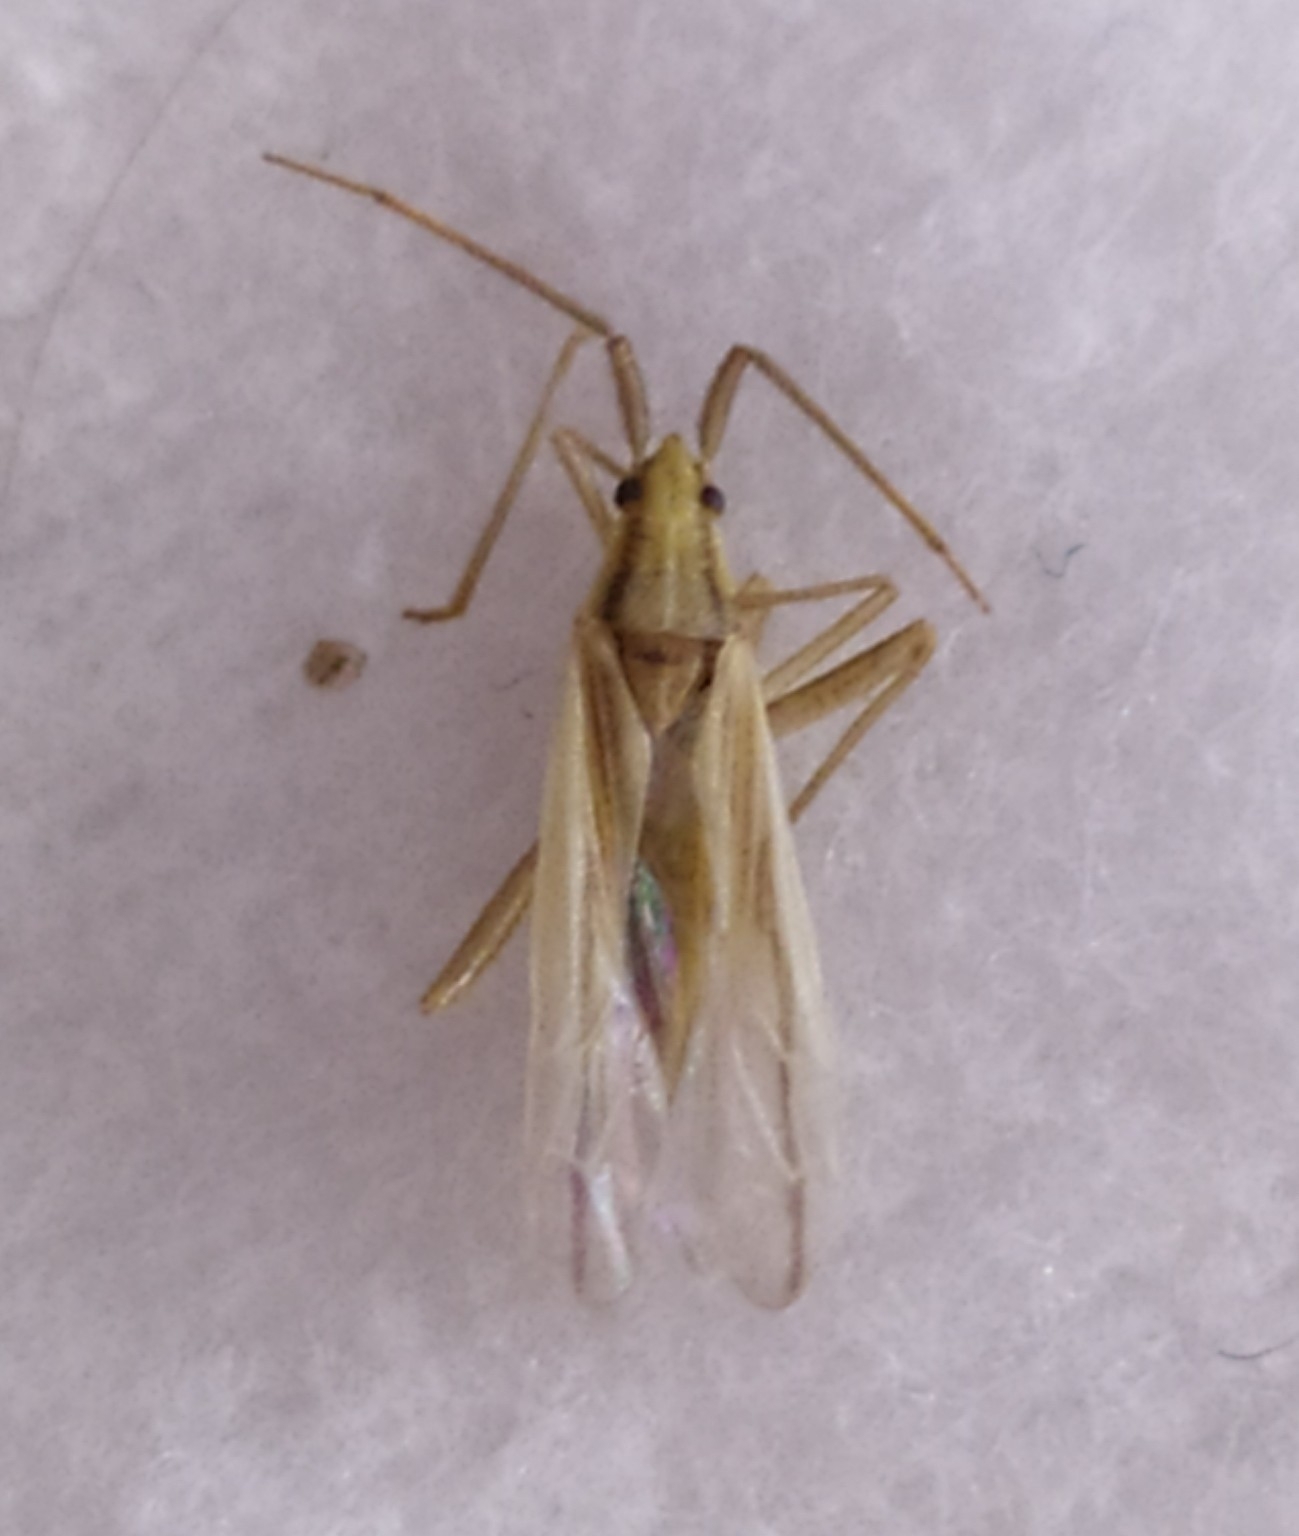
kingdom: Animalia
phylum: Arthropoda
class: Insecta
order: Hemiptera
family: Miridae
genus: Stenodema
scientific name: Stenodema laevigata
